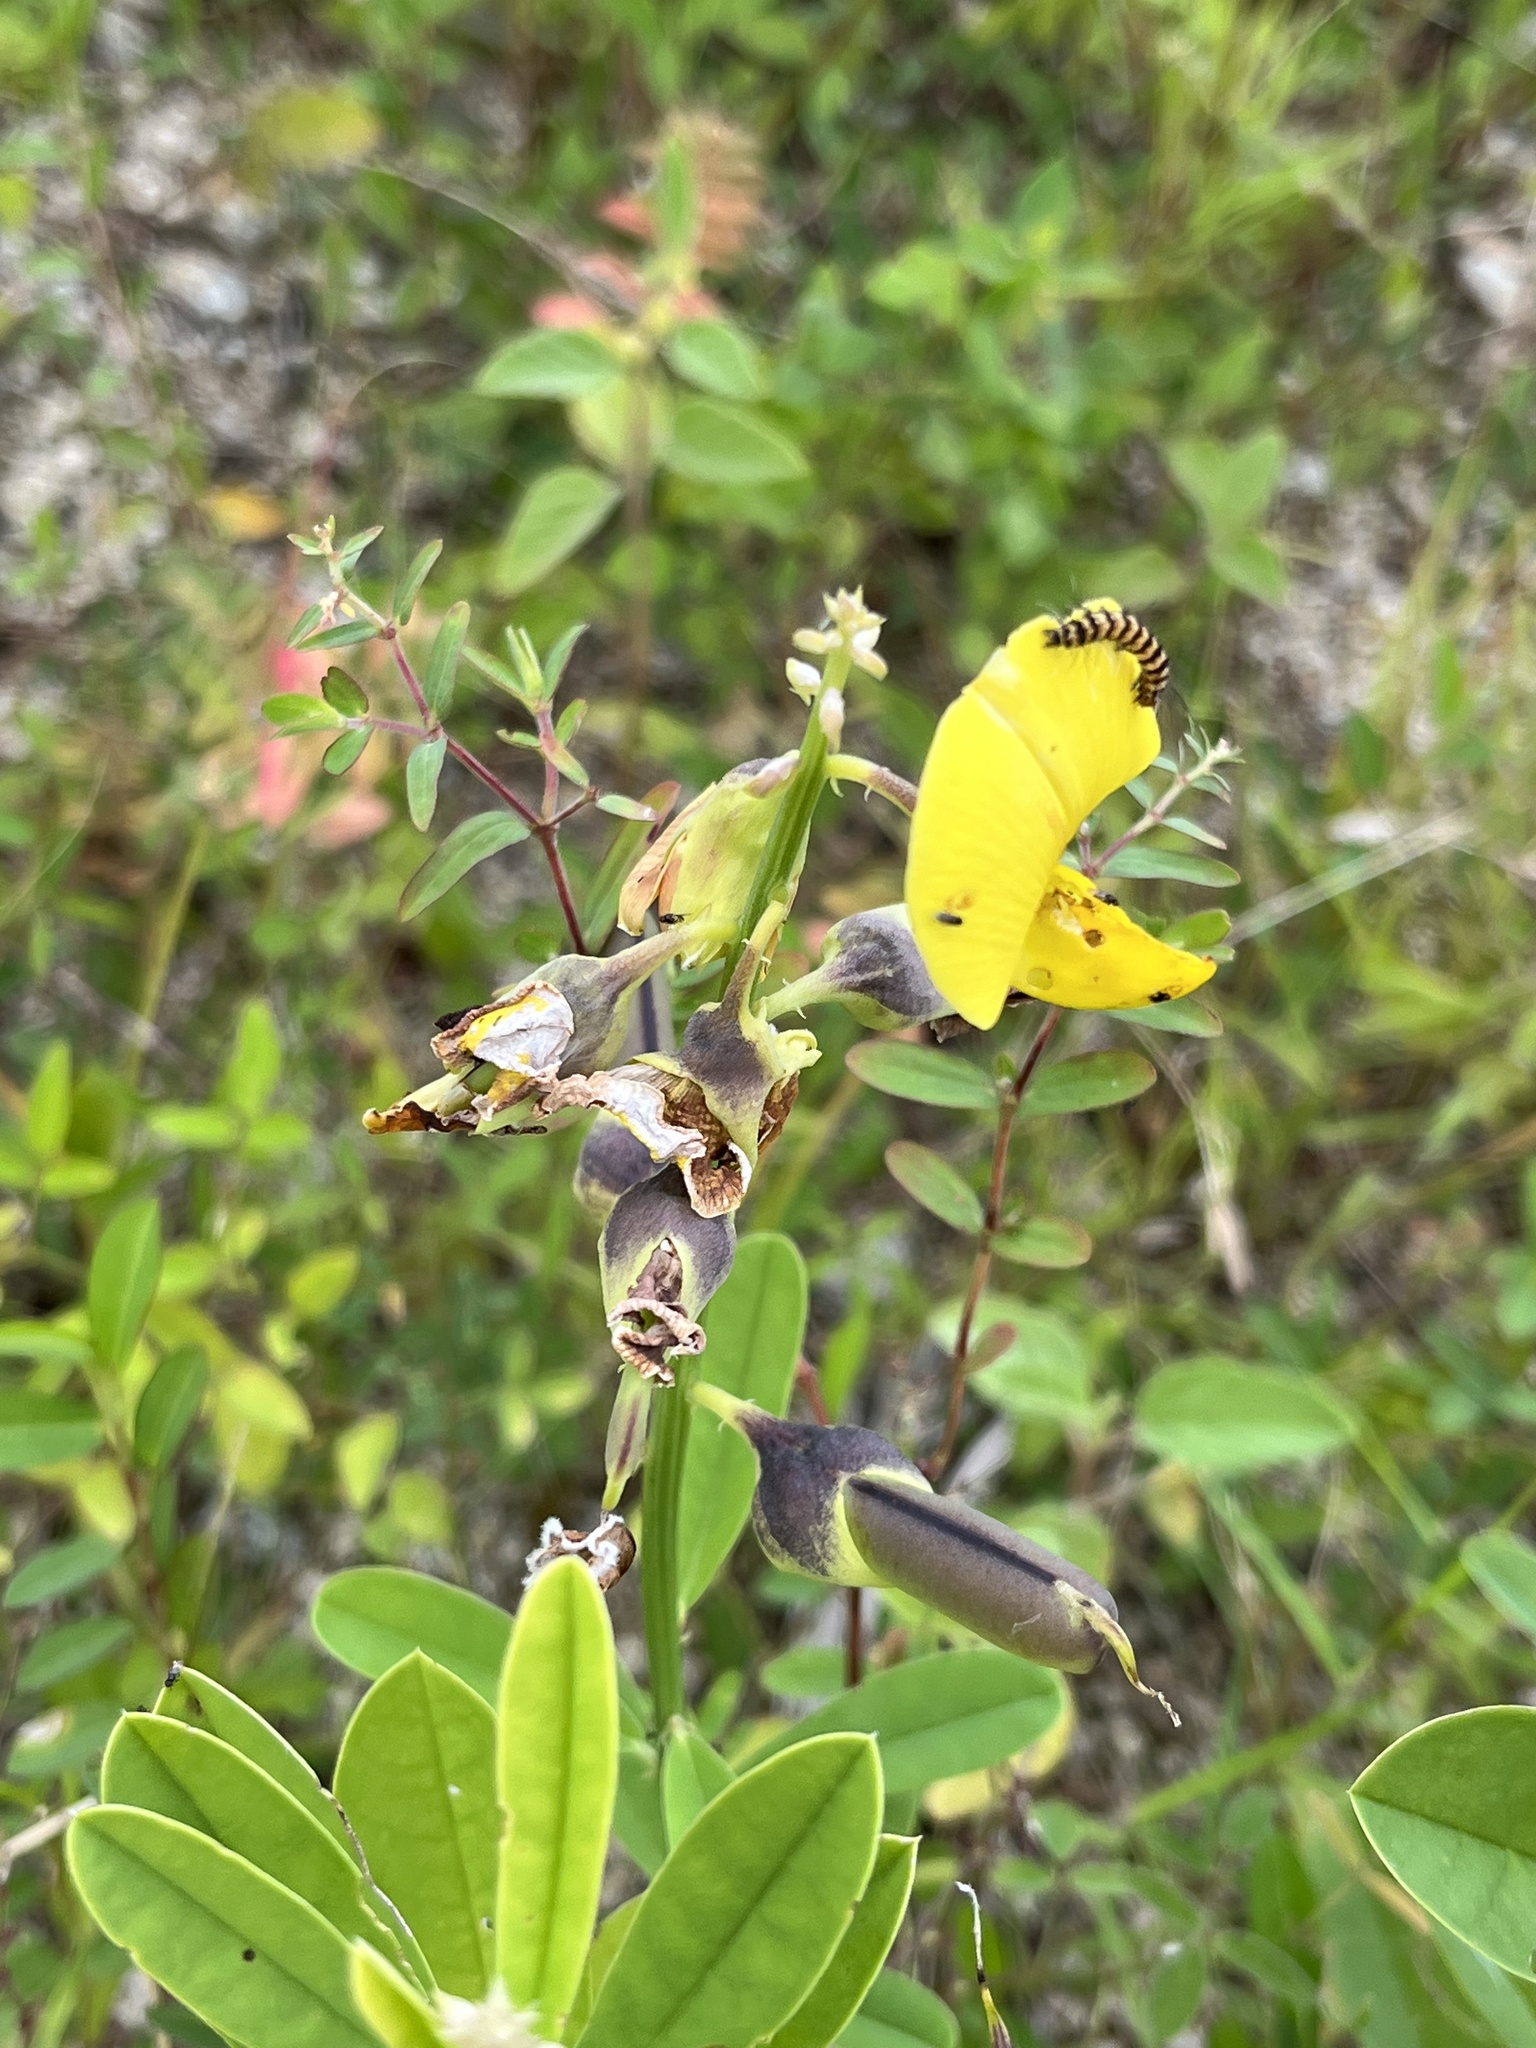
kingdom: Plantae
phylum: Tracheophyta
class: Magnoliopsida
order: Fabales
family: Fabaceae
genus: Crotalaria
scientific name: Crotalaria retusa
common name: Rattleweed
